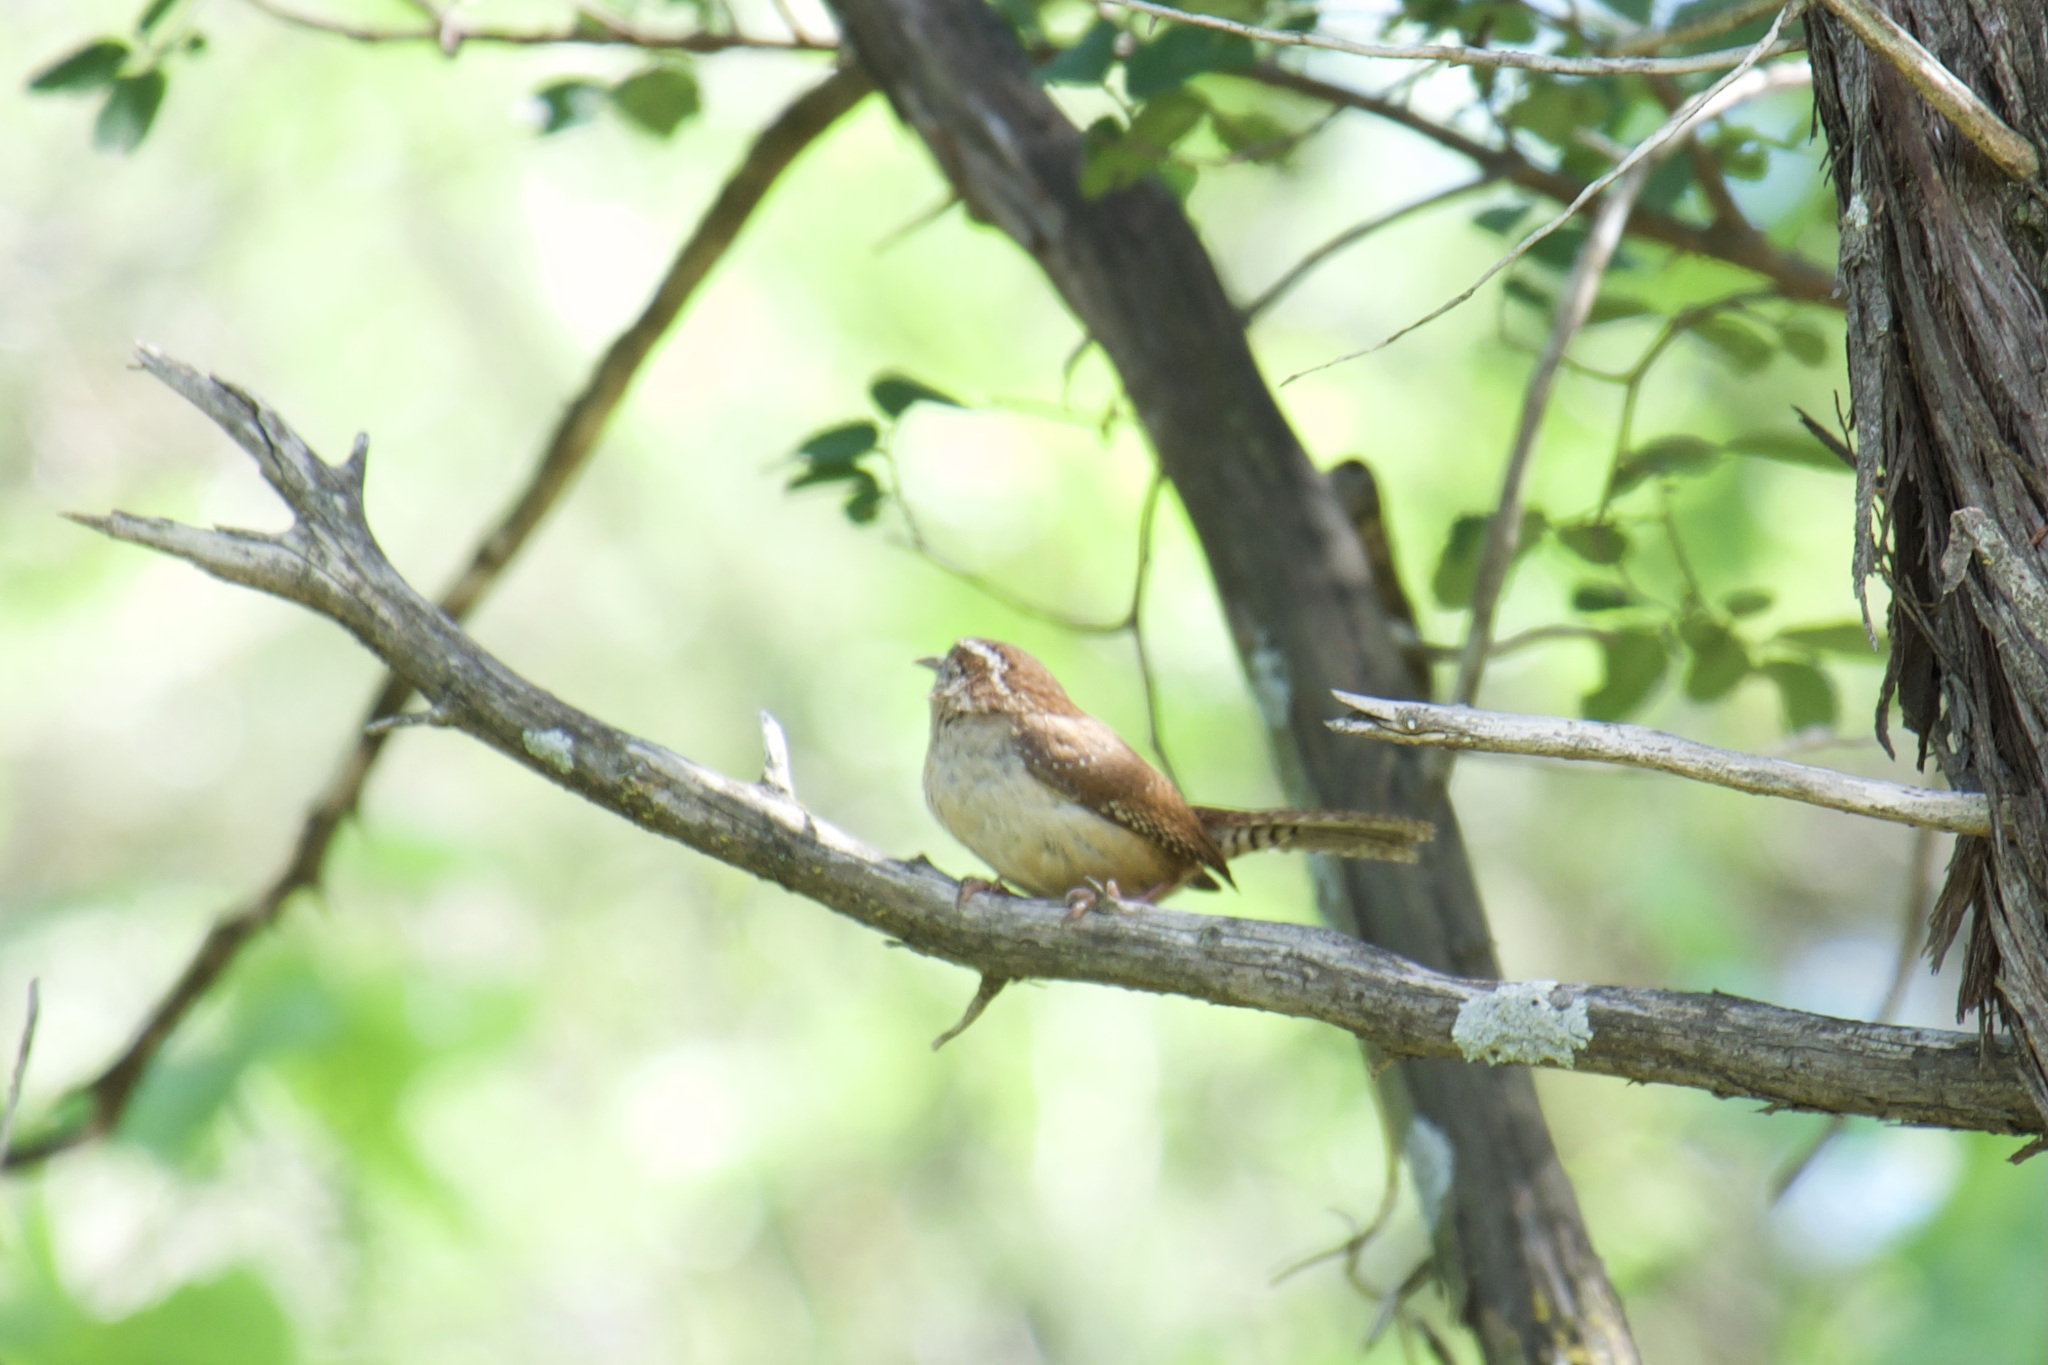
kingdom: Animalia
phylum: Chordata
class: Aves
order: Passeriformes
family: Troglodytidae
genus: Thryothorus
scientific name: Thryothorus ludovicianus
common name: Carolina wren
